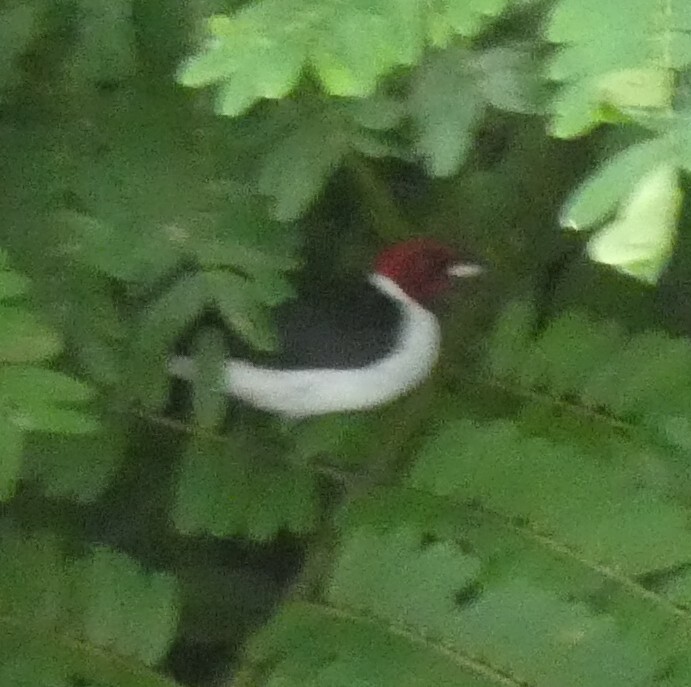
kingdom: Animalia
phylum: Chordata
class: Aves
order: Passeriformes
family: Thraupidae
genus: Paroaria
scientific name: Paroaria gularis
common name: Red-capped cardinal
